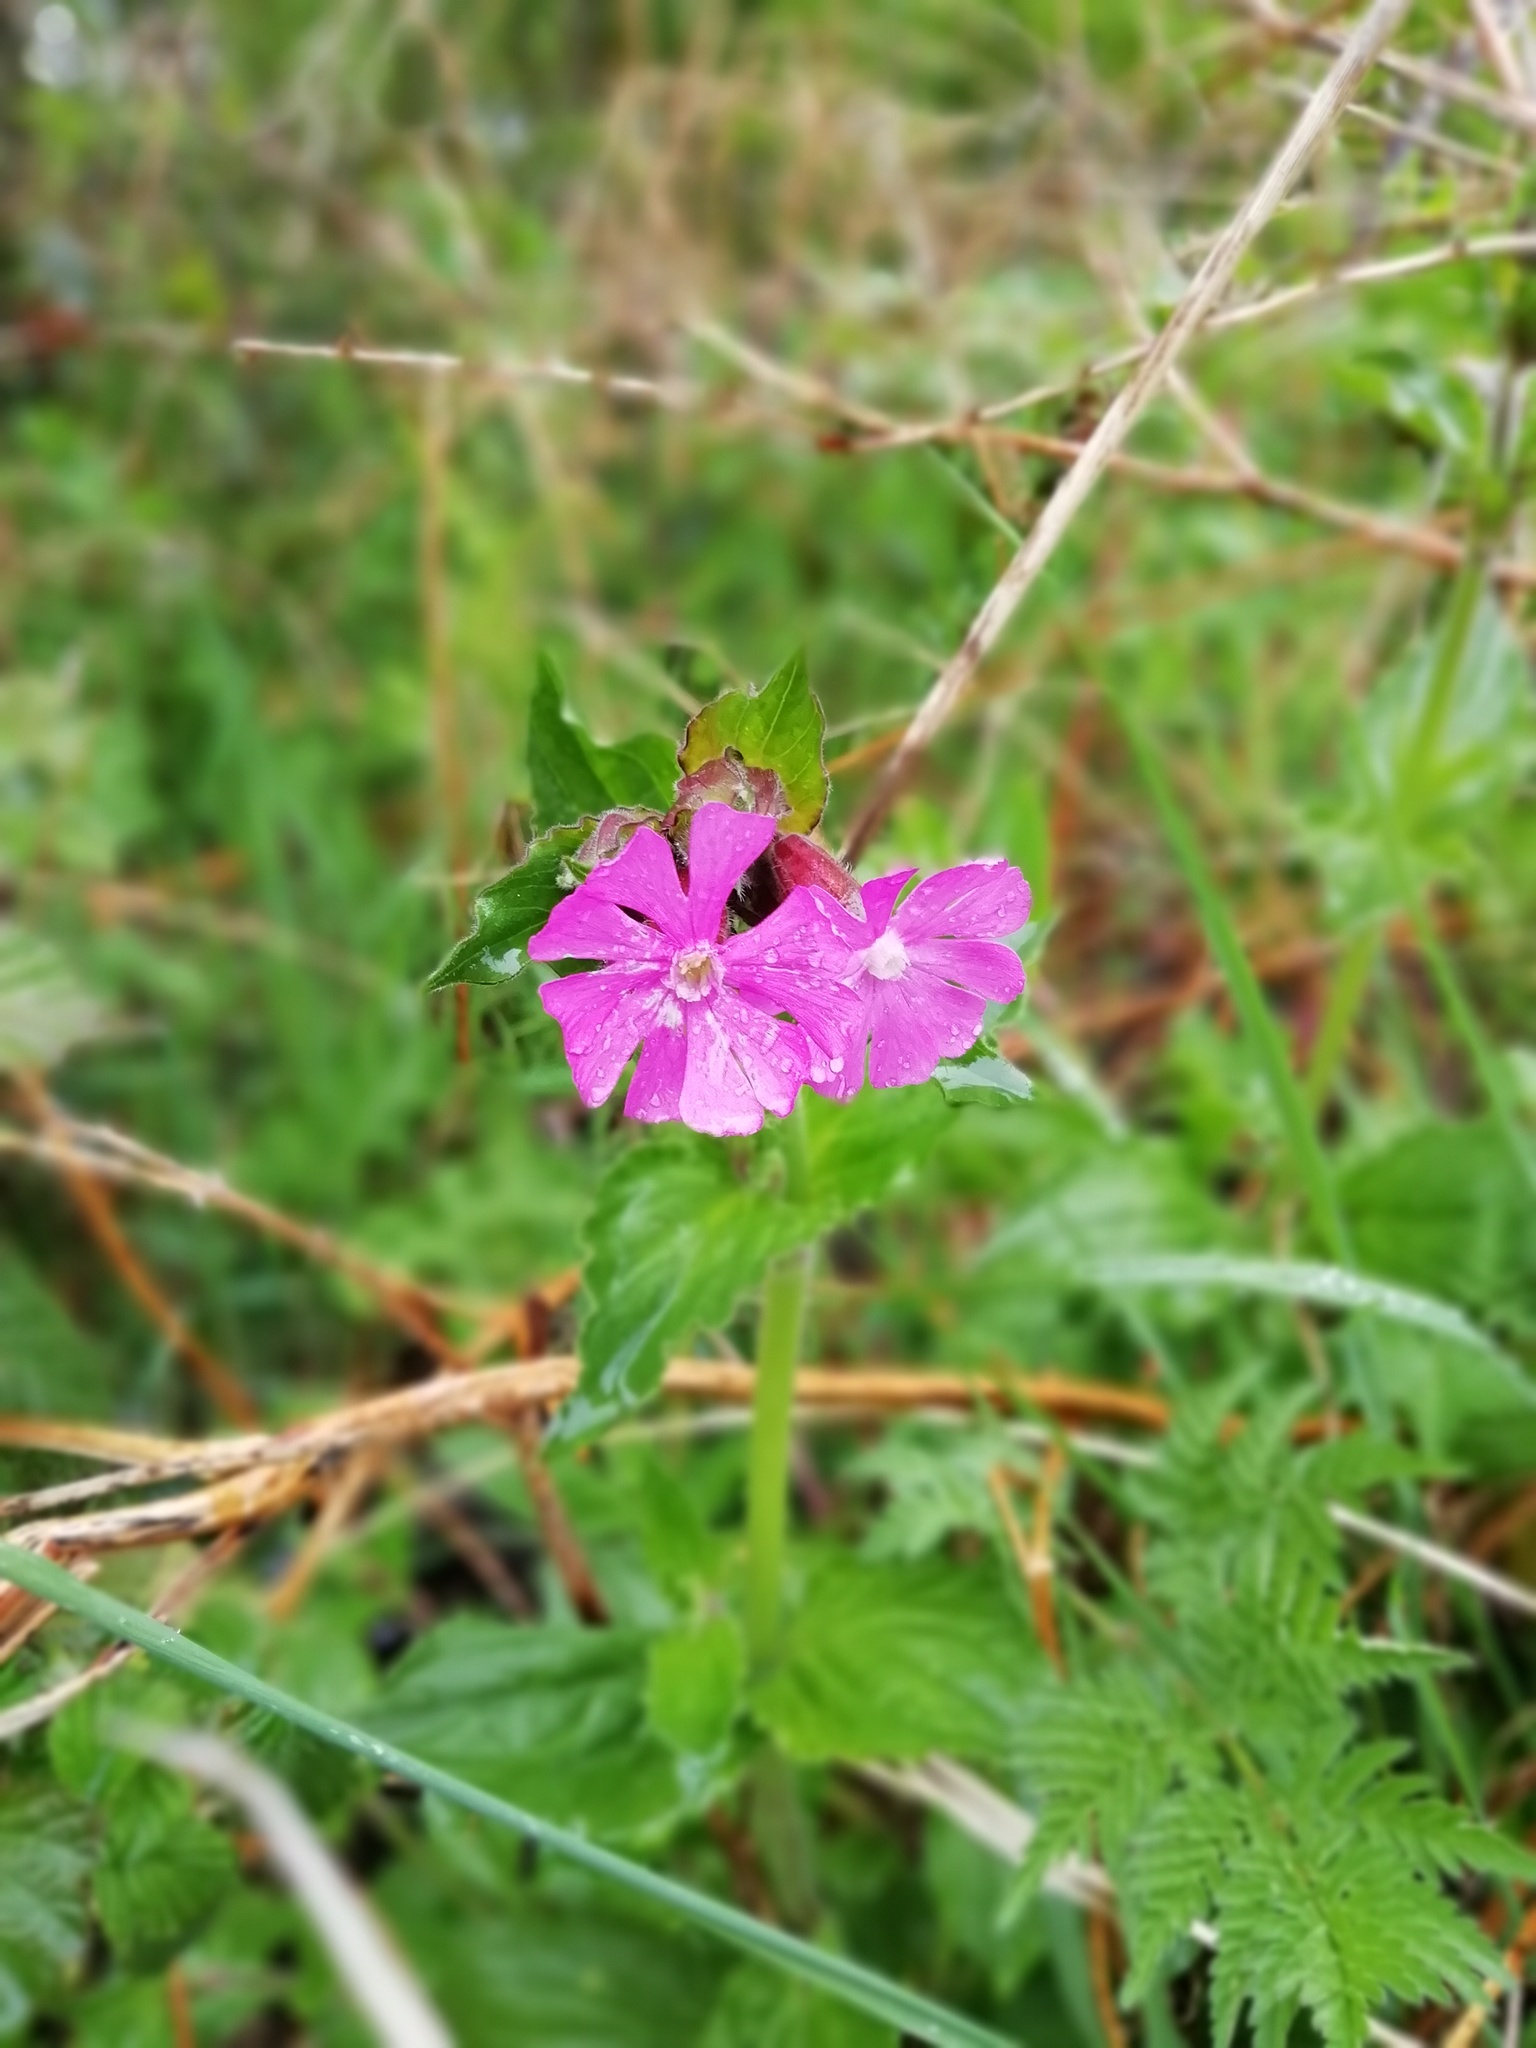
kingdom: Plantae
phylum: Tracheophyta
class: Magnoliopsida
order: Caryophyllales
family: Caryophyllaceae
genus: Silene
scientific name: Silene dioica
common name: Red campion
